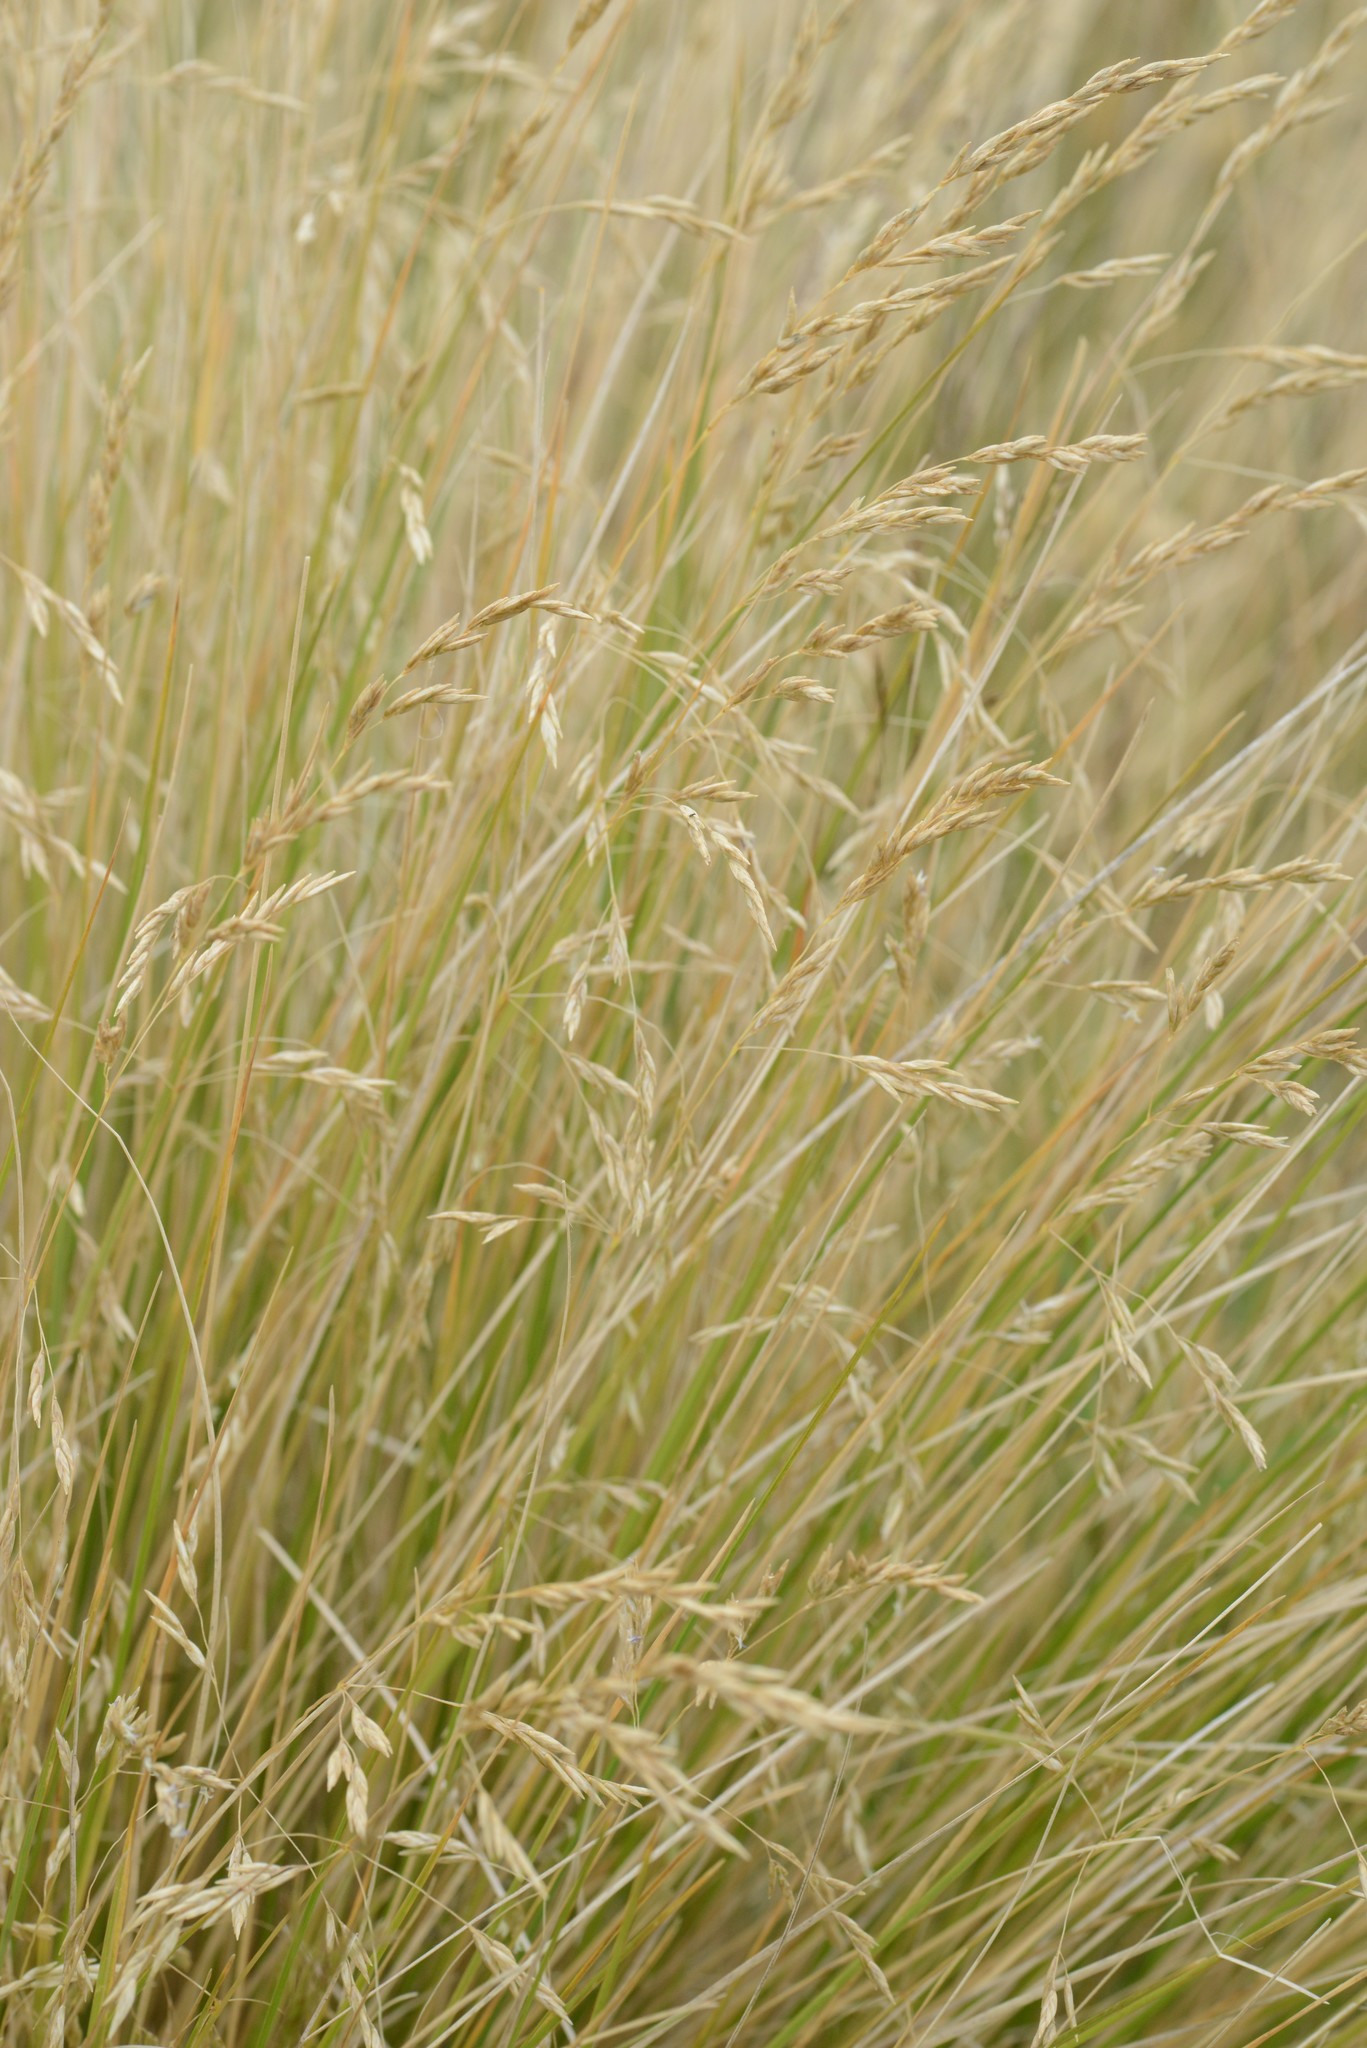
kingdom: Plantae
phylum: Tracheophyta
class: Liliopsida
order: Poales
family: Poaceae
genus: Poa
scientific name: Poa cita
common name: Silver tussock
